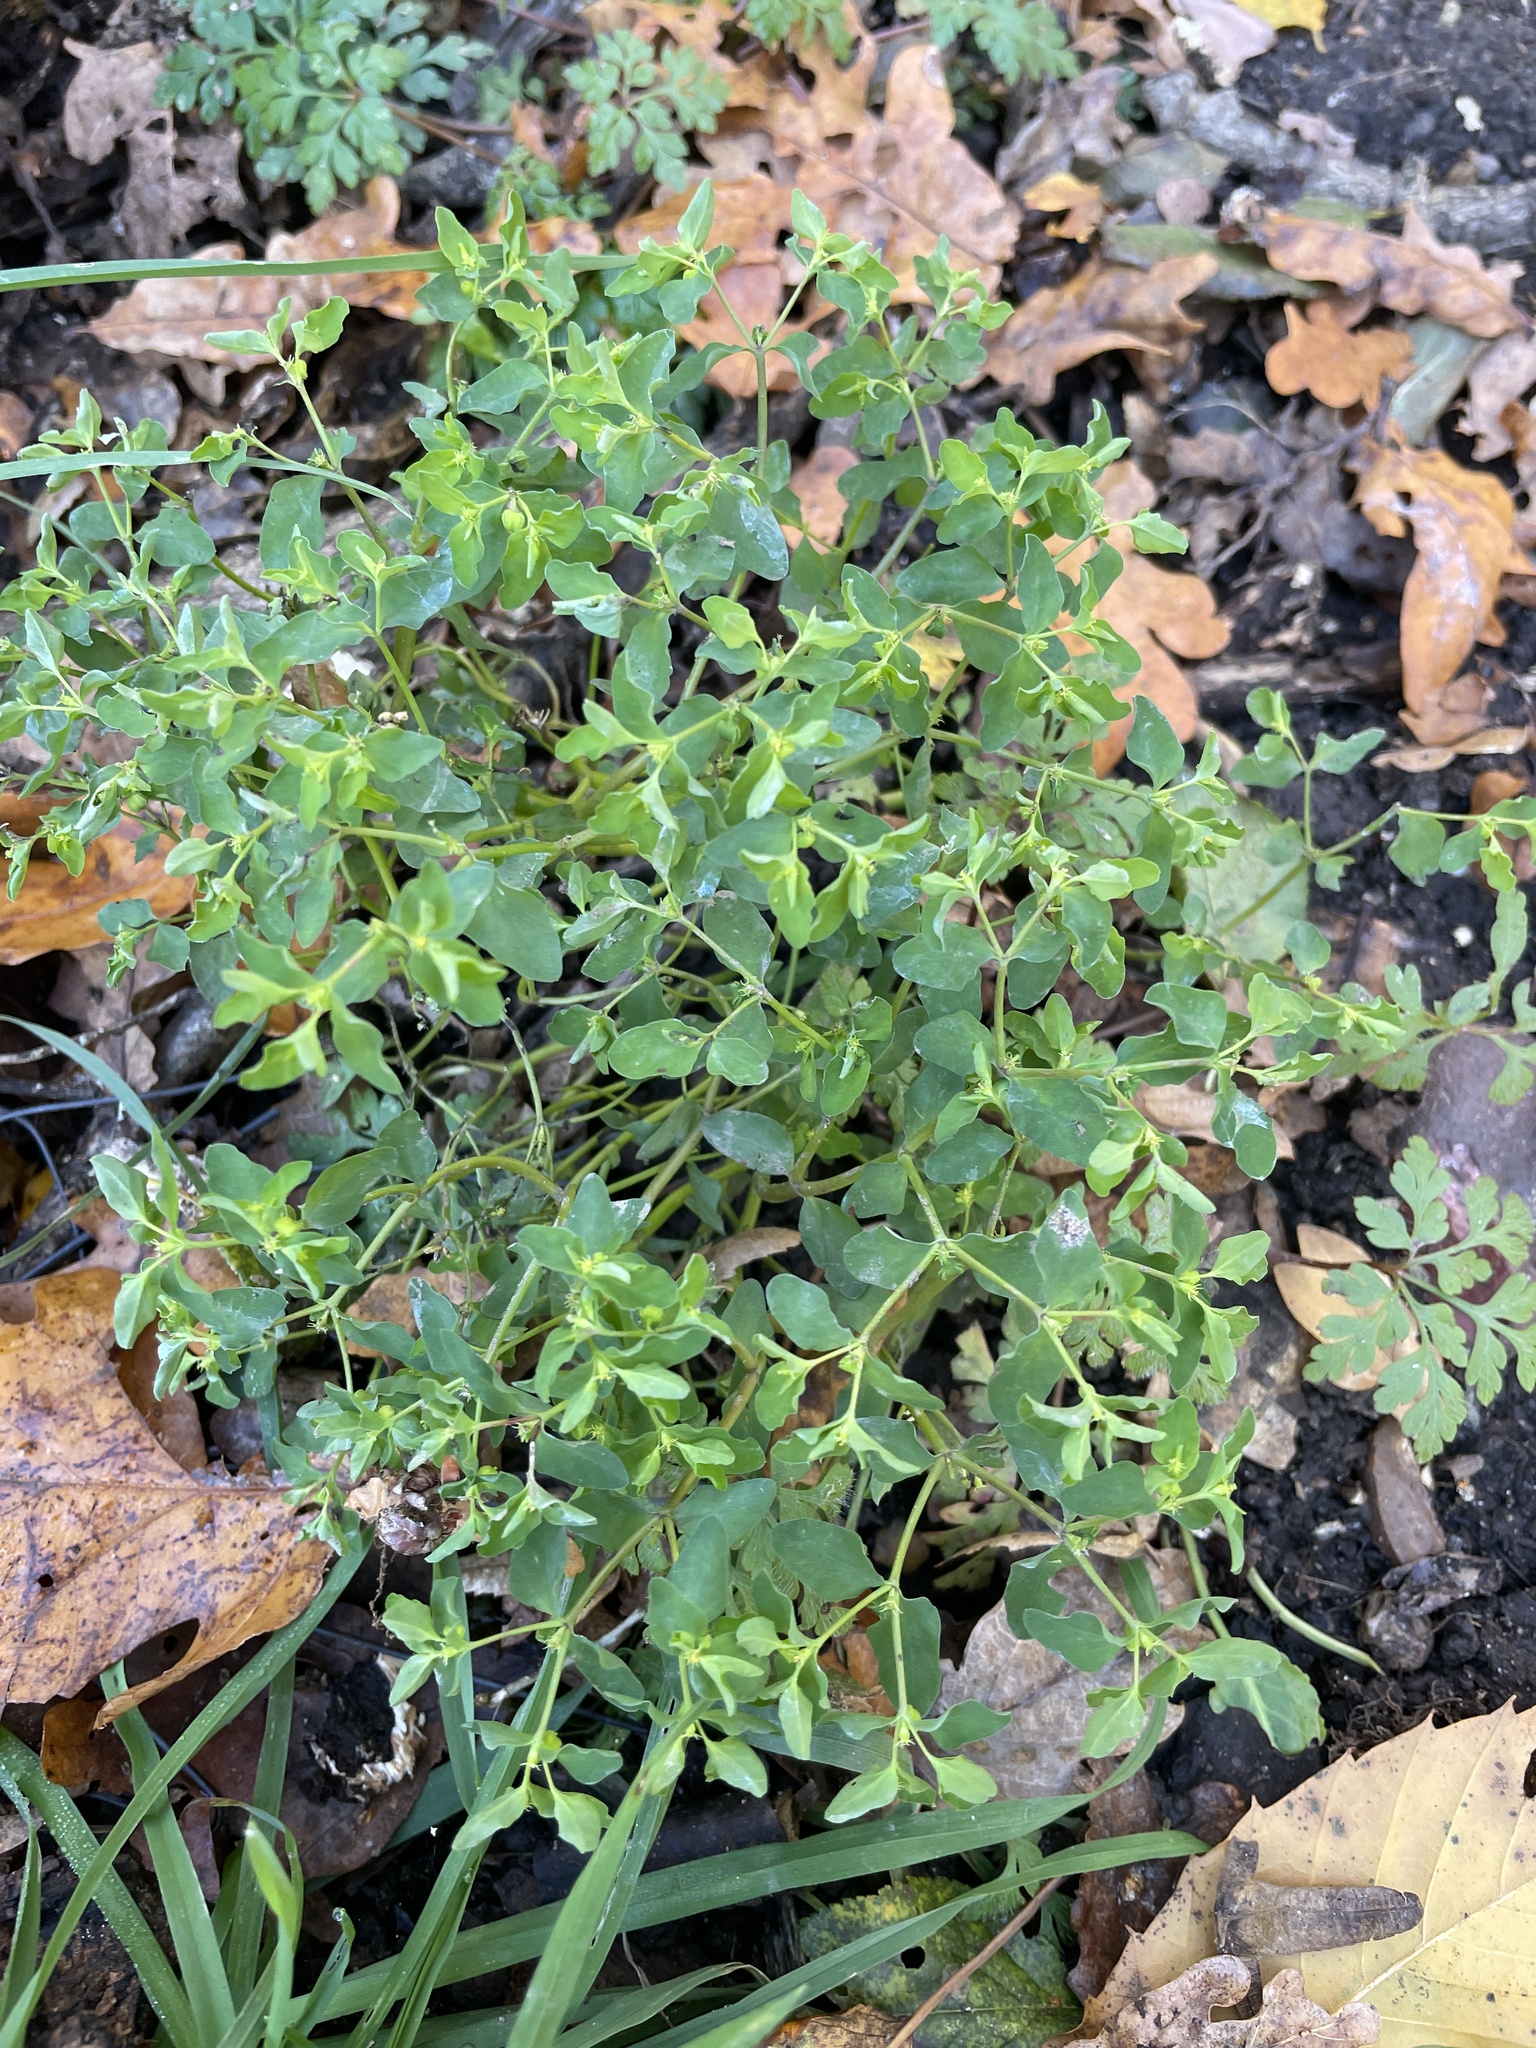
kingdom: Plantae
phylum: Tracheophyta
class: Magnoliopsida
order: Malpighiales
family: Euphorbiaceae
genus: Euphorbia
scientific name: Euphorbia peplus
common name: Petty spurge
